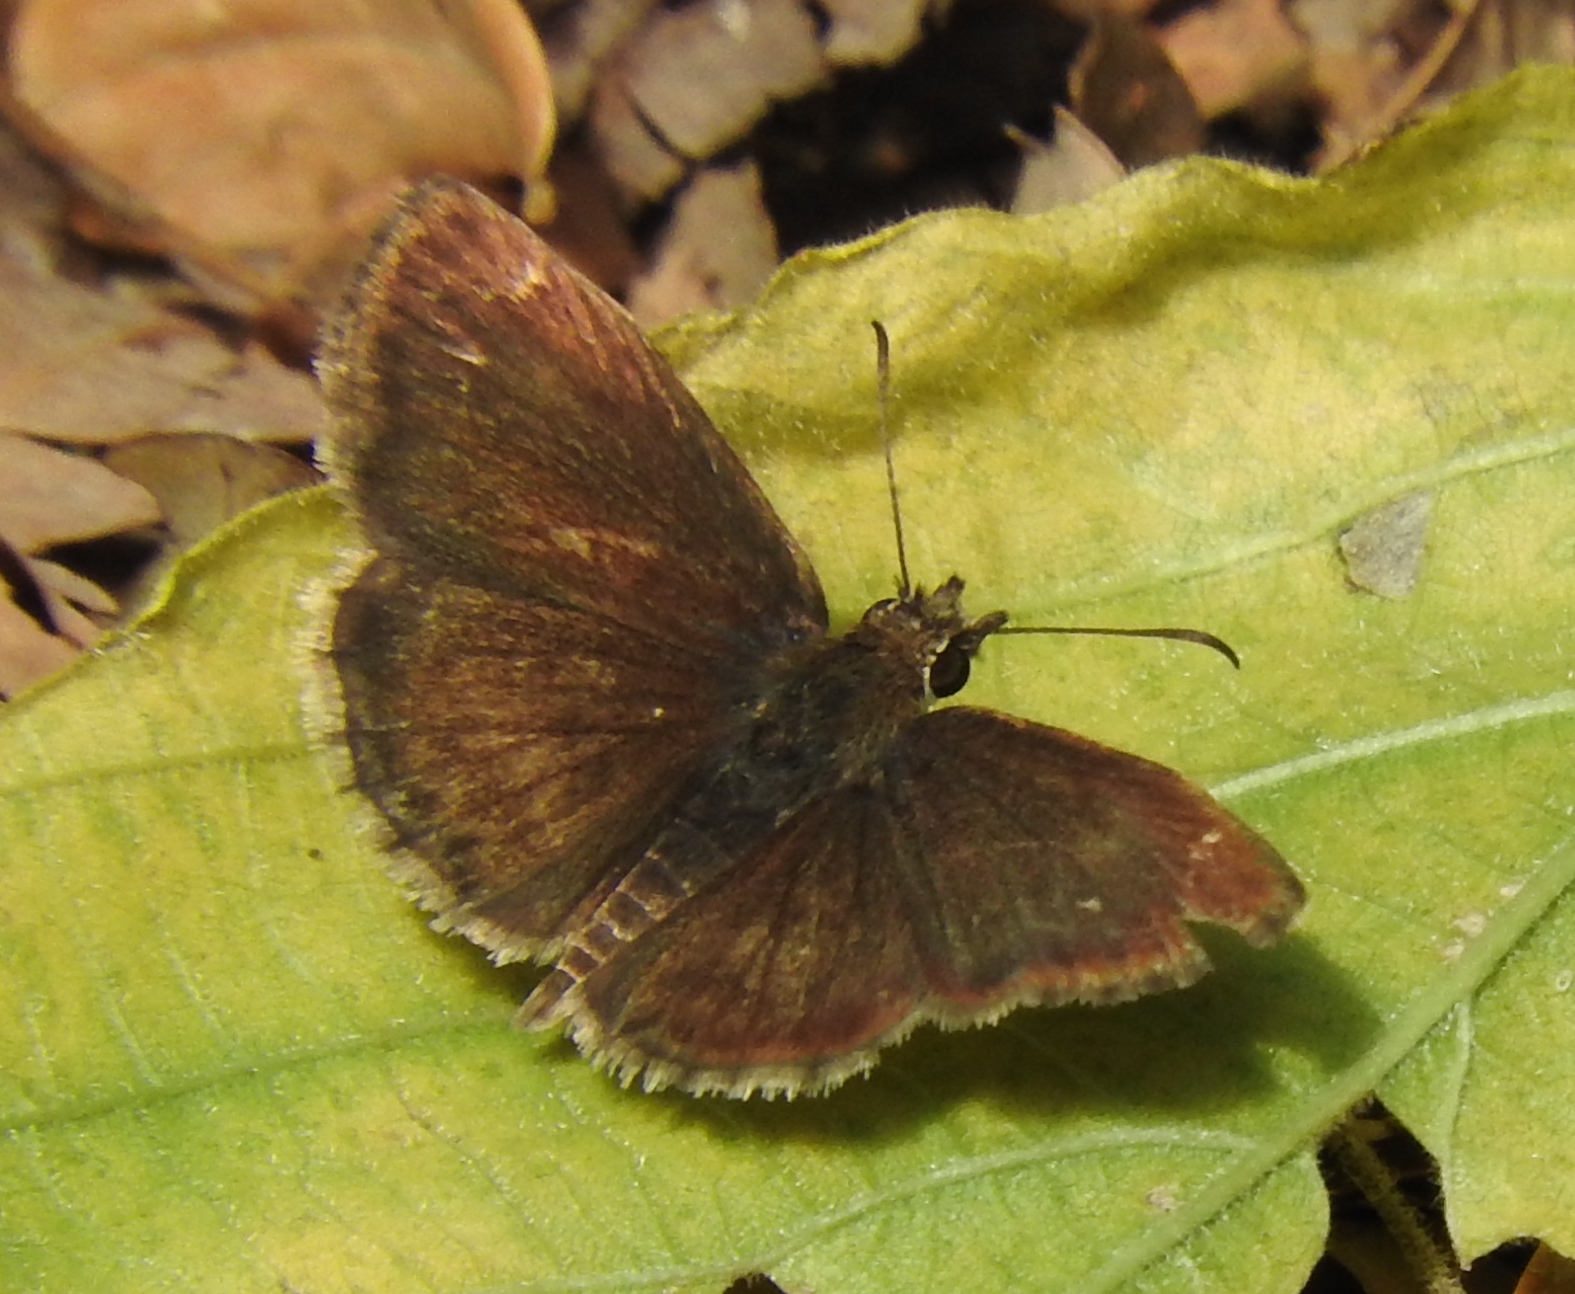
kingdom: Animalia
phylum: Arthropoda
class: Insecta
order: Lepidoptera
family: Hesperiidae
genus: Zopyrion
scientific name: Zopyrion sandace
